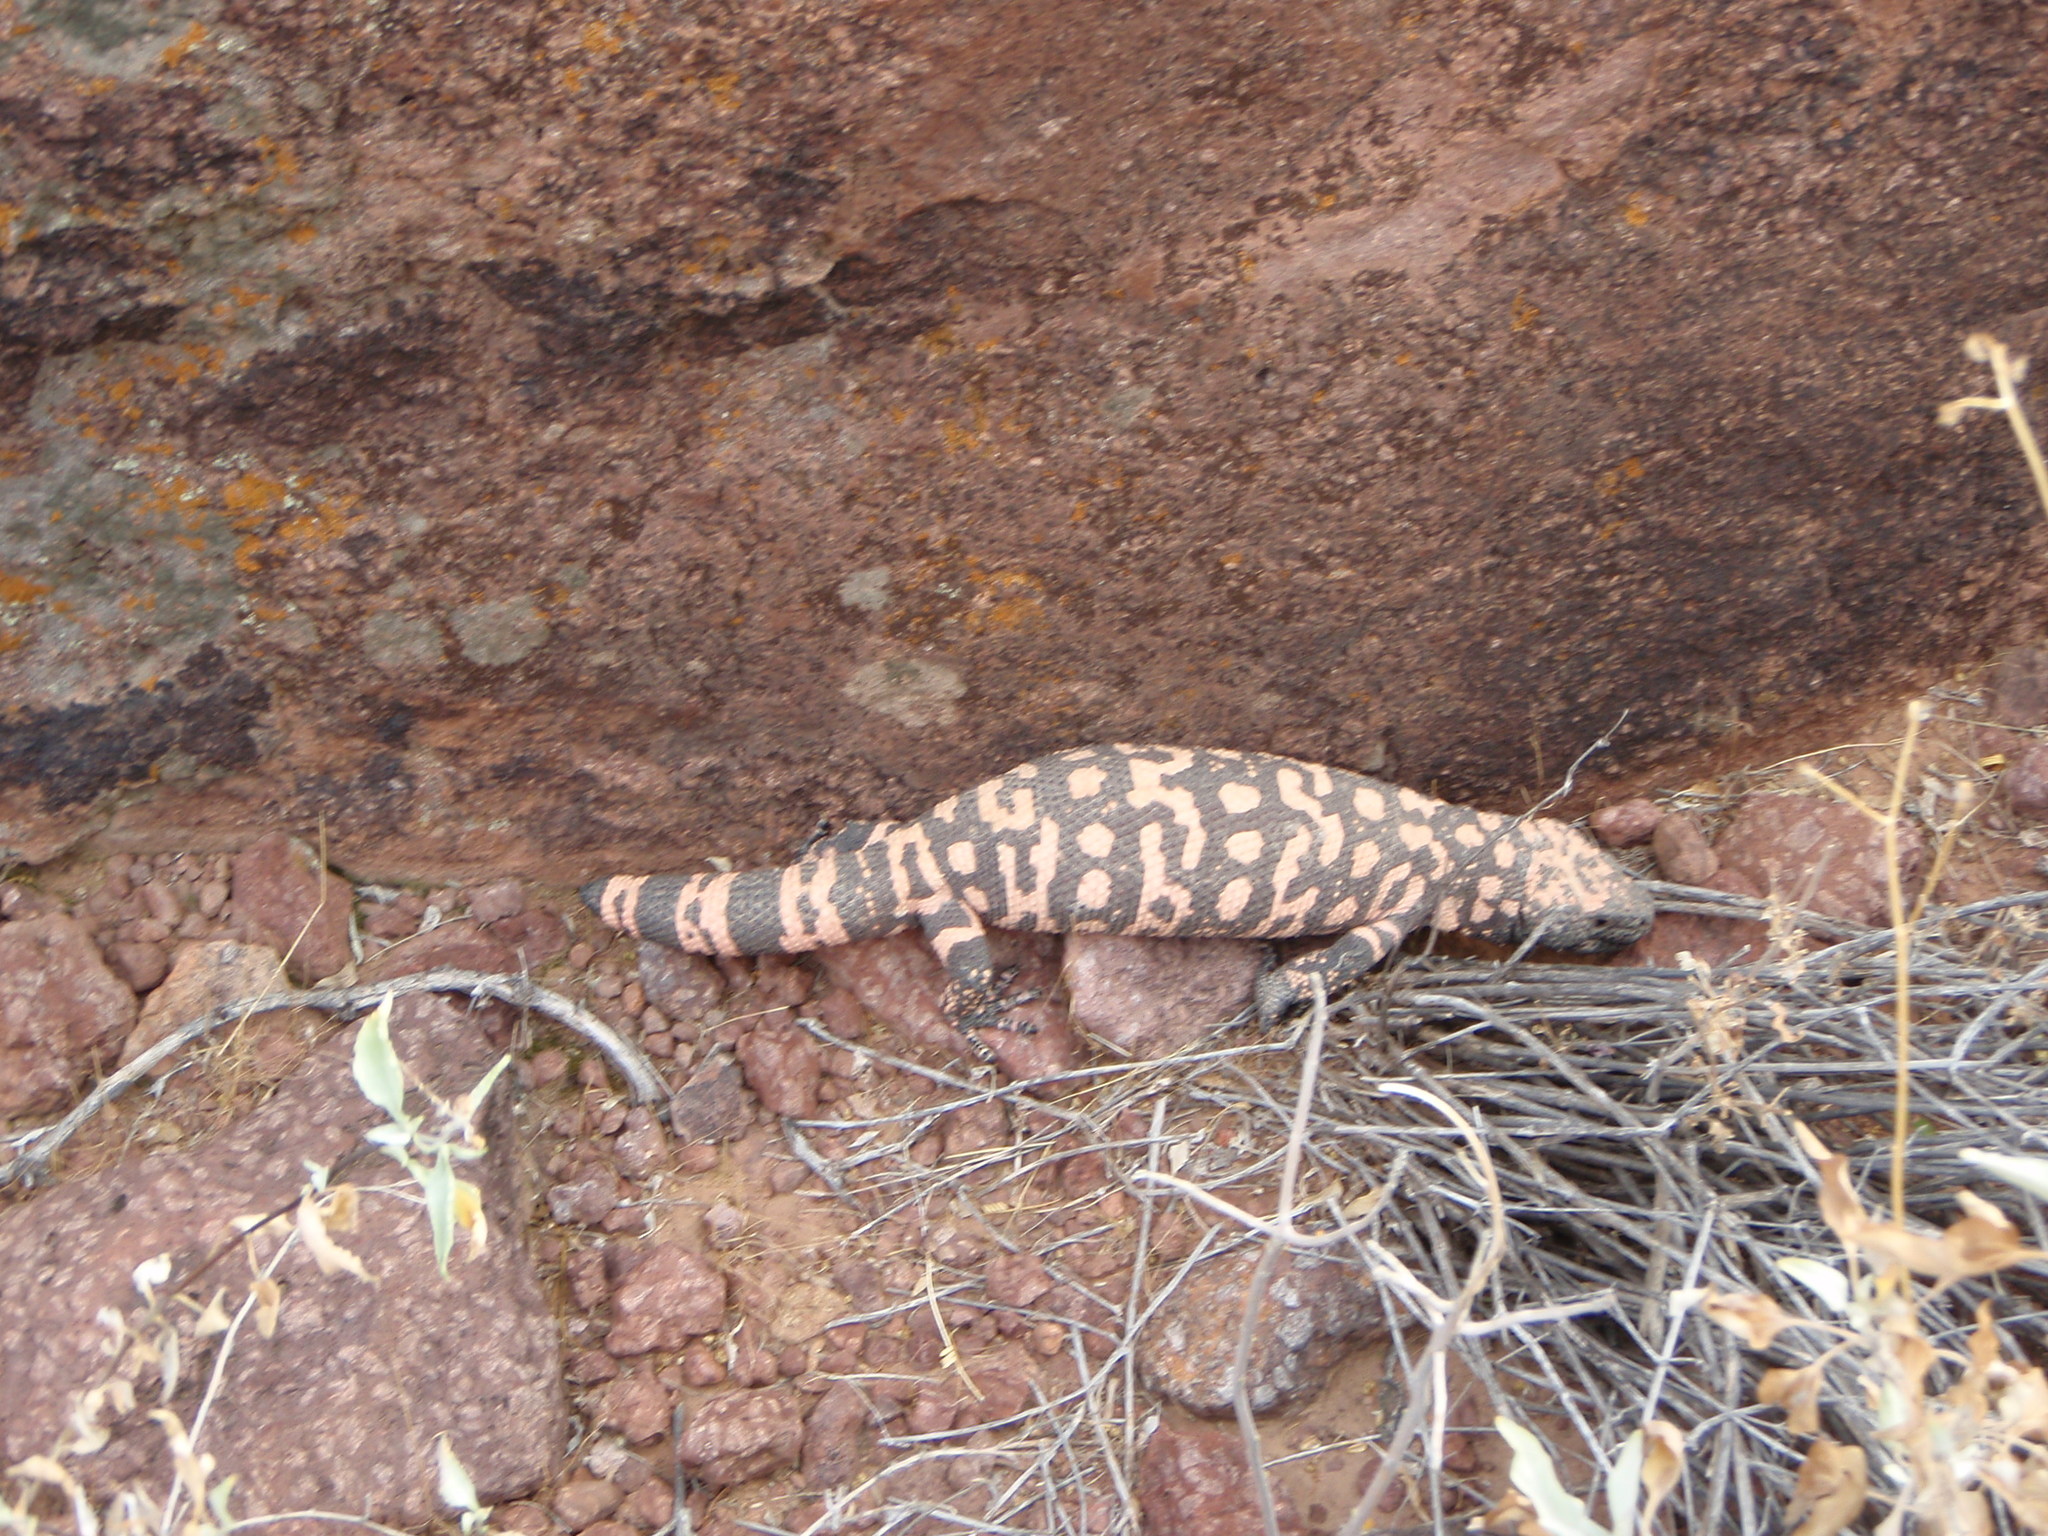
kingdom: Animalia
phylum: Chordata
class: Squamata
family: Helodermatidae
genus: Heloderma
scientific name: Heloderma suspectum
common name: Gila monster
